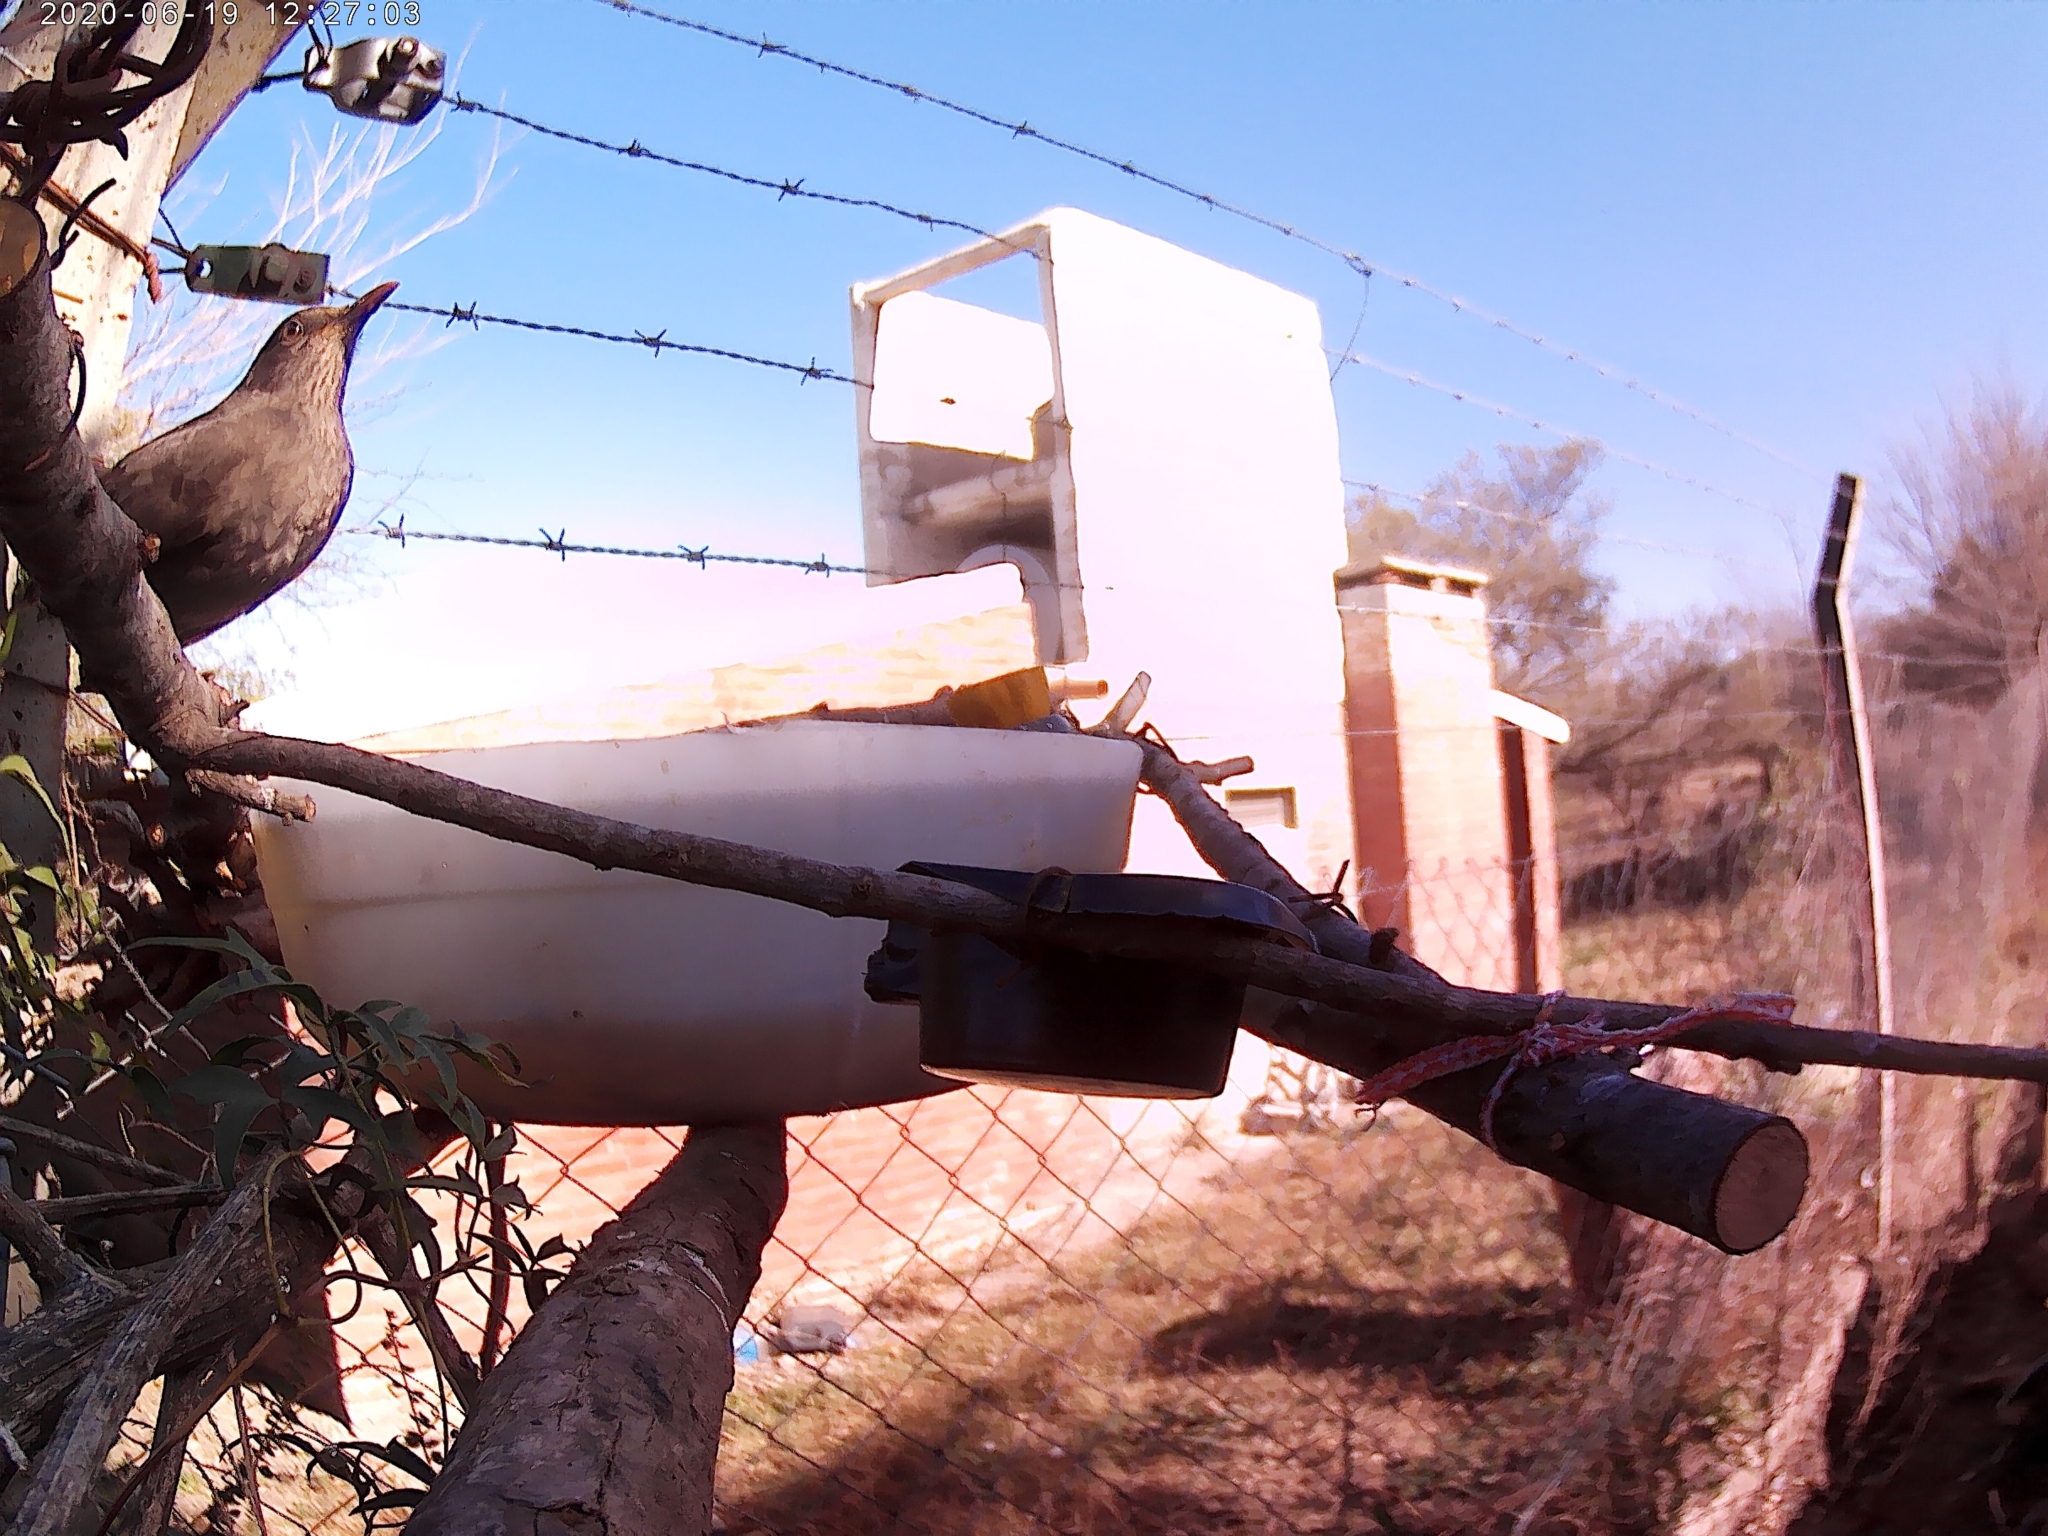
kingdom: Animalia
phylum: Chordata
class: Aves
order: Passeriformes
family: Turdidae
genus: Turdus
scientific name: Turdus chiguanco
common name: Chiguanco thrush
